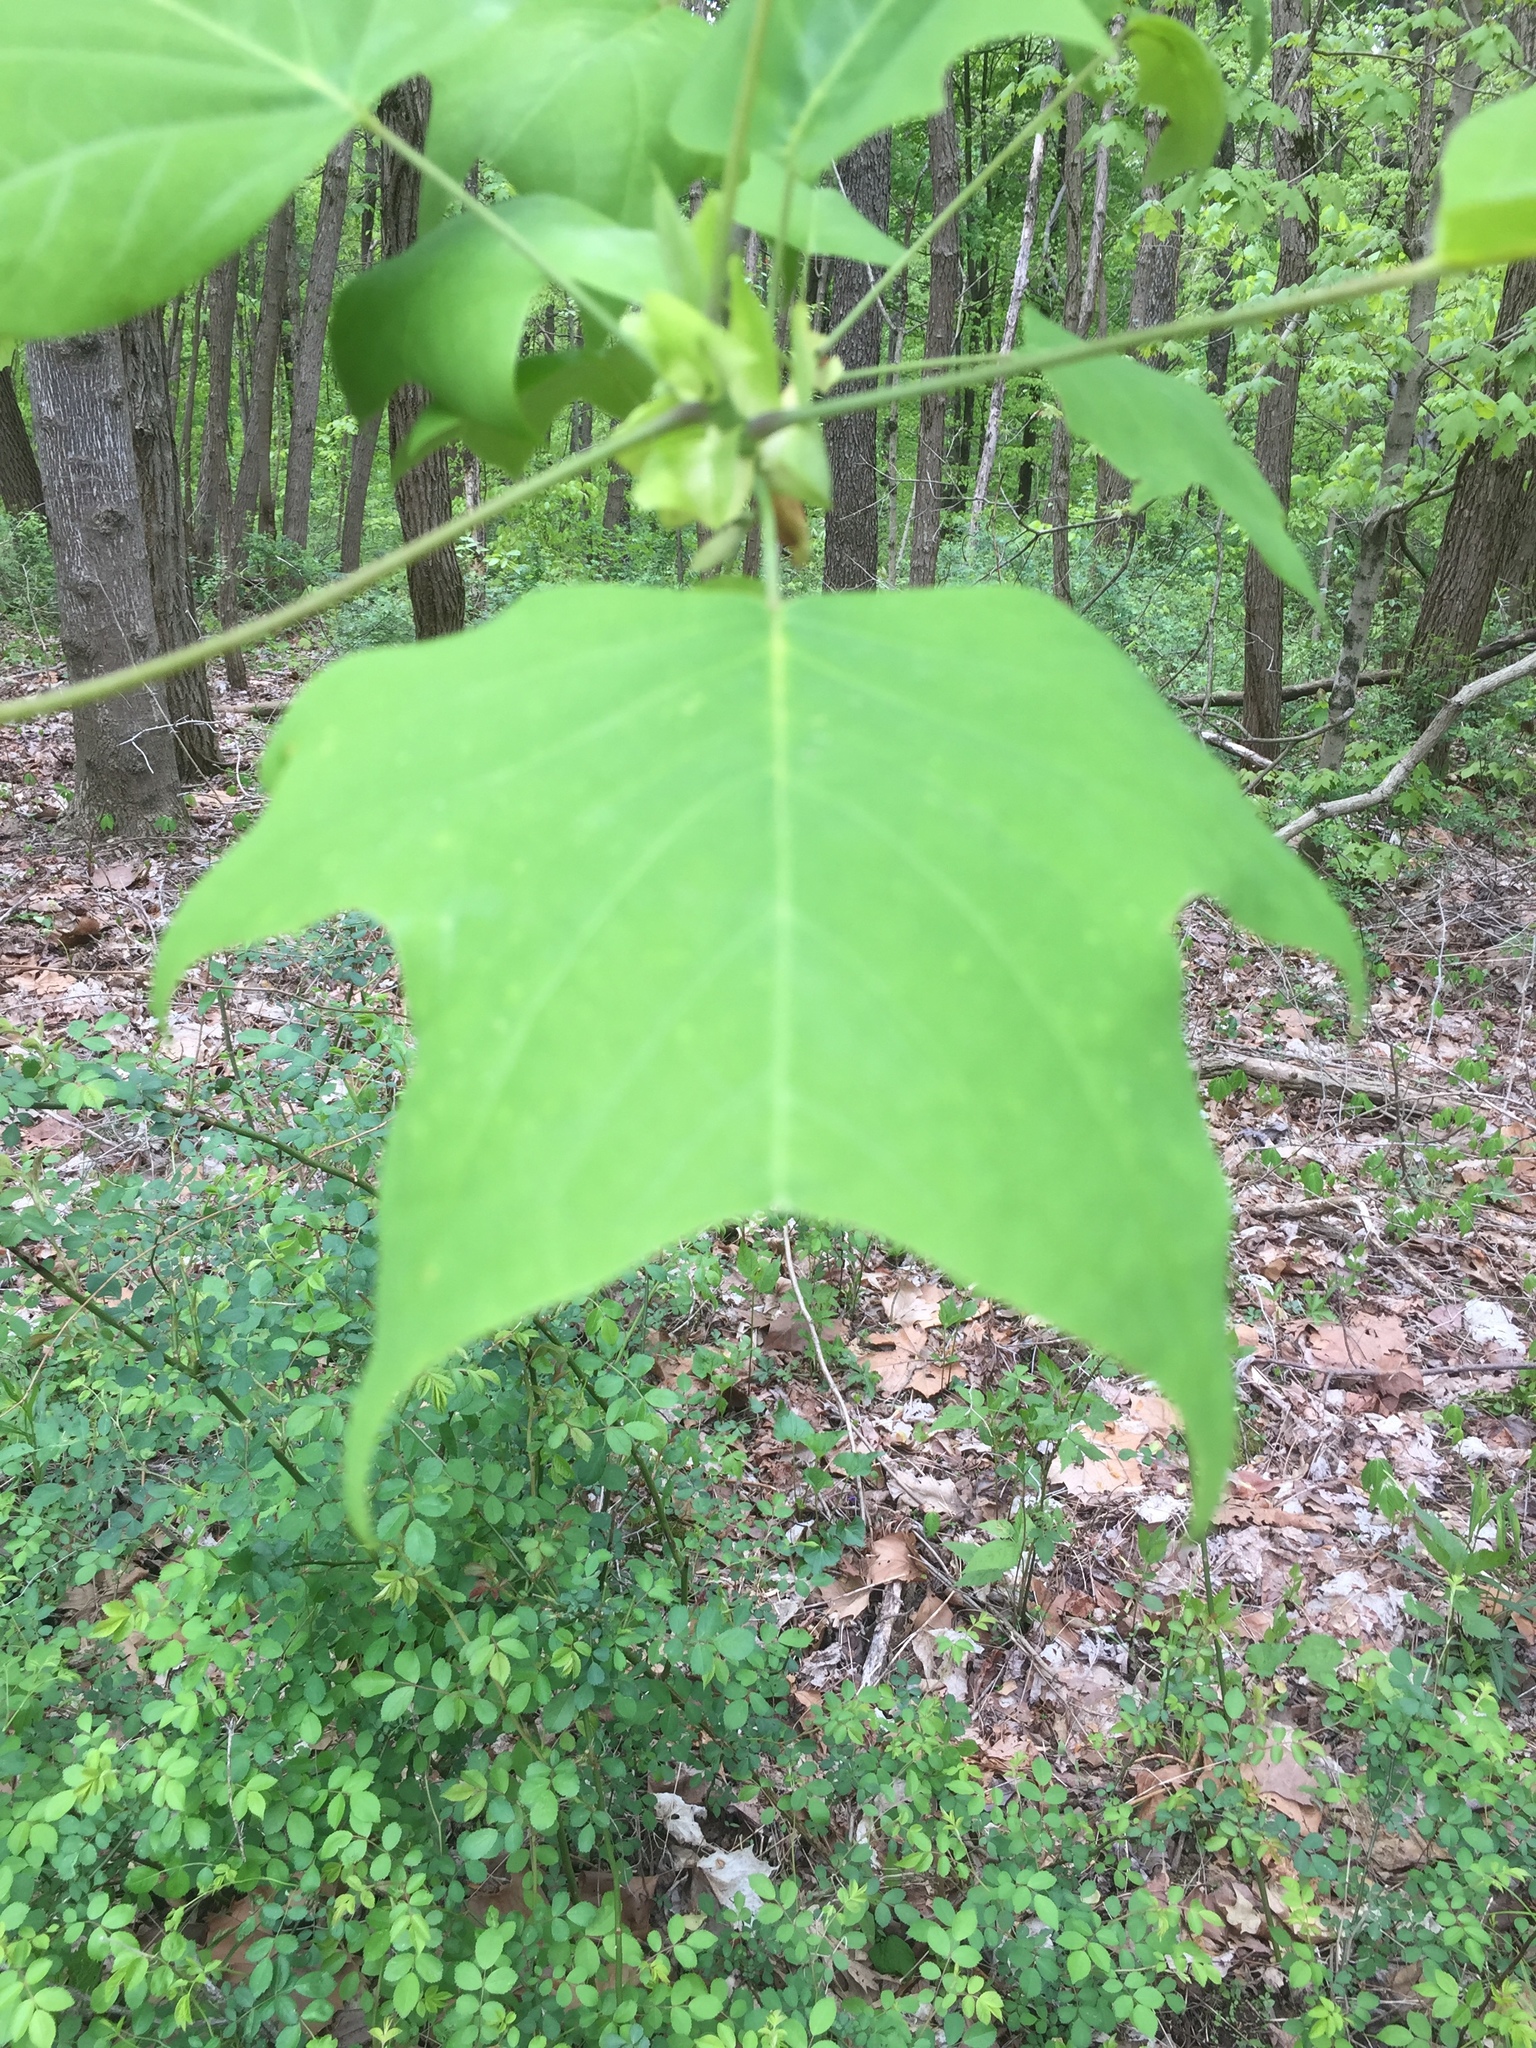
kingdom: Plantae
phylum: Tracheophyta
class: Magnoliopsida
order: Magnoliales
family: Magnoliaceae
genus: Liriodendron
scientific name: Liriodendron tulipifera
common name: Tulip tree
